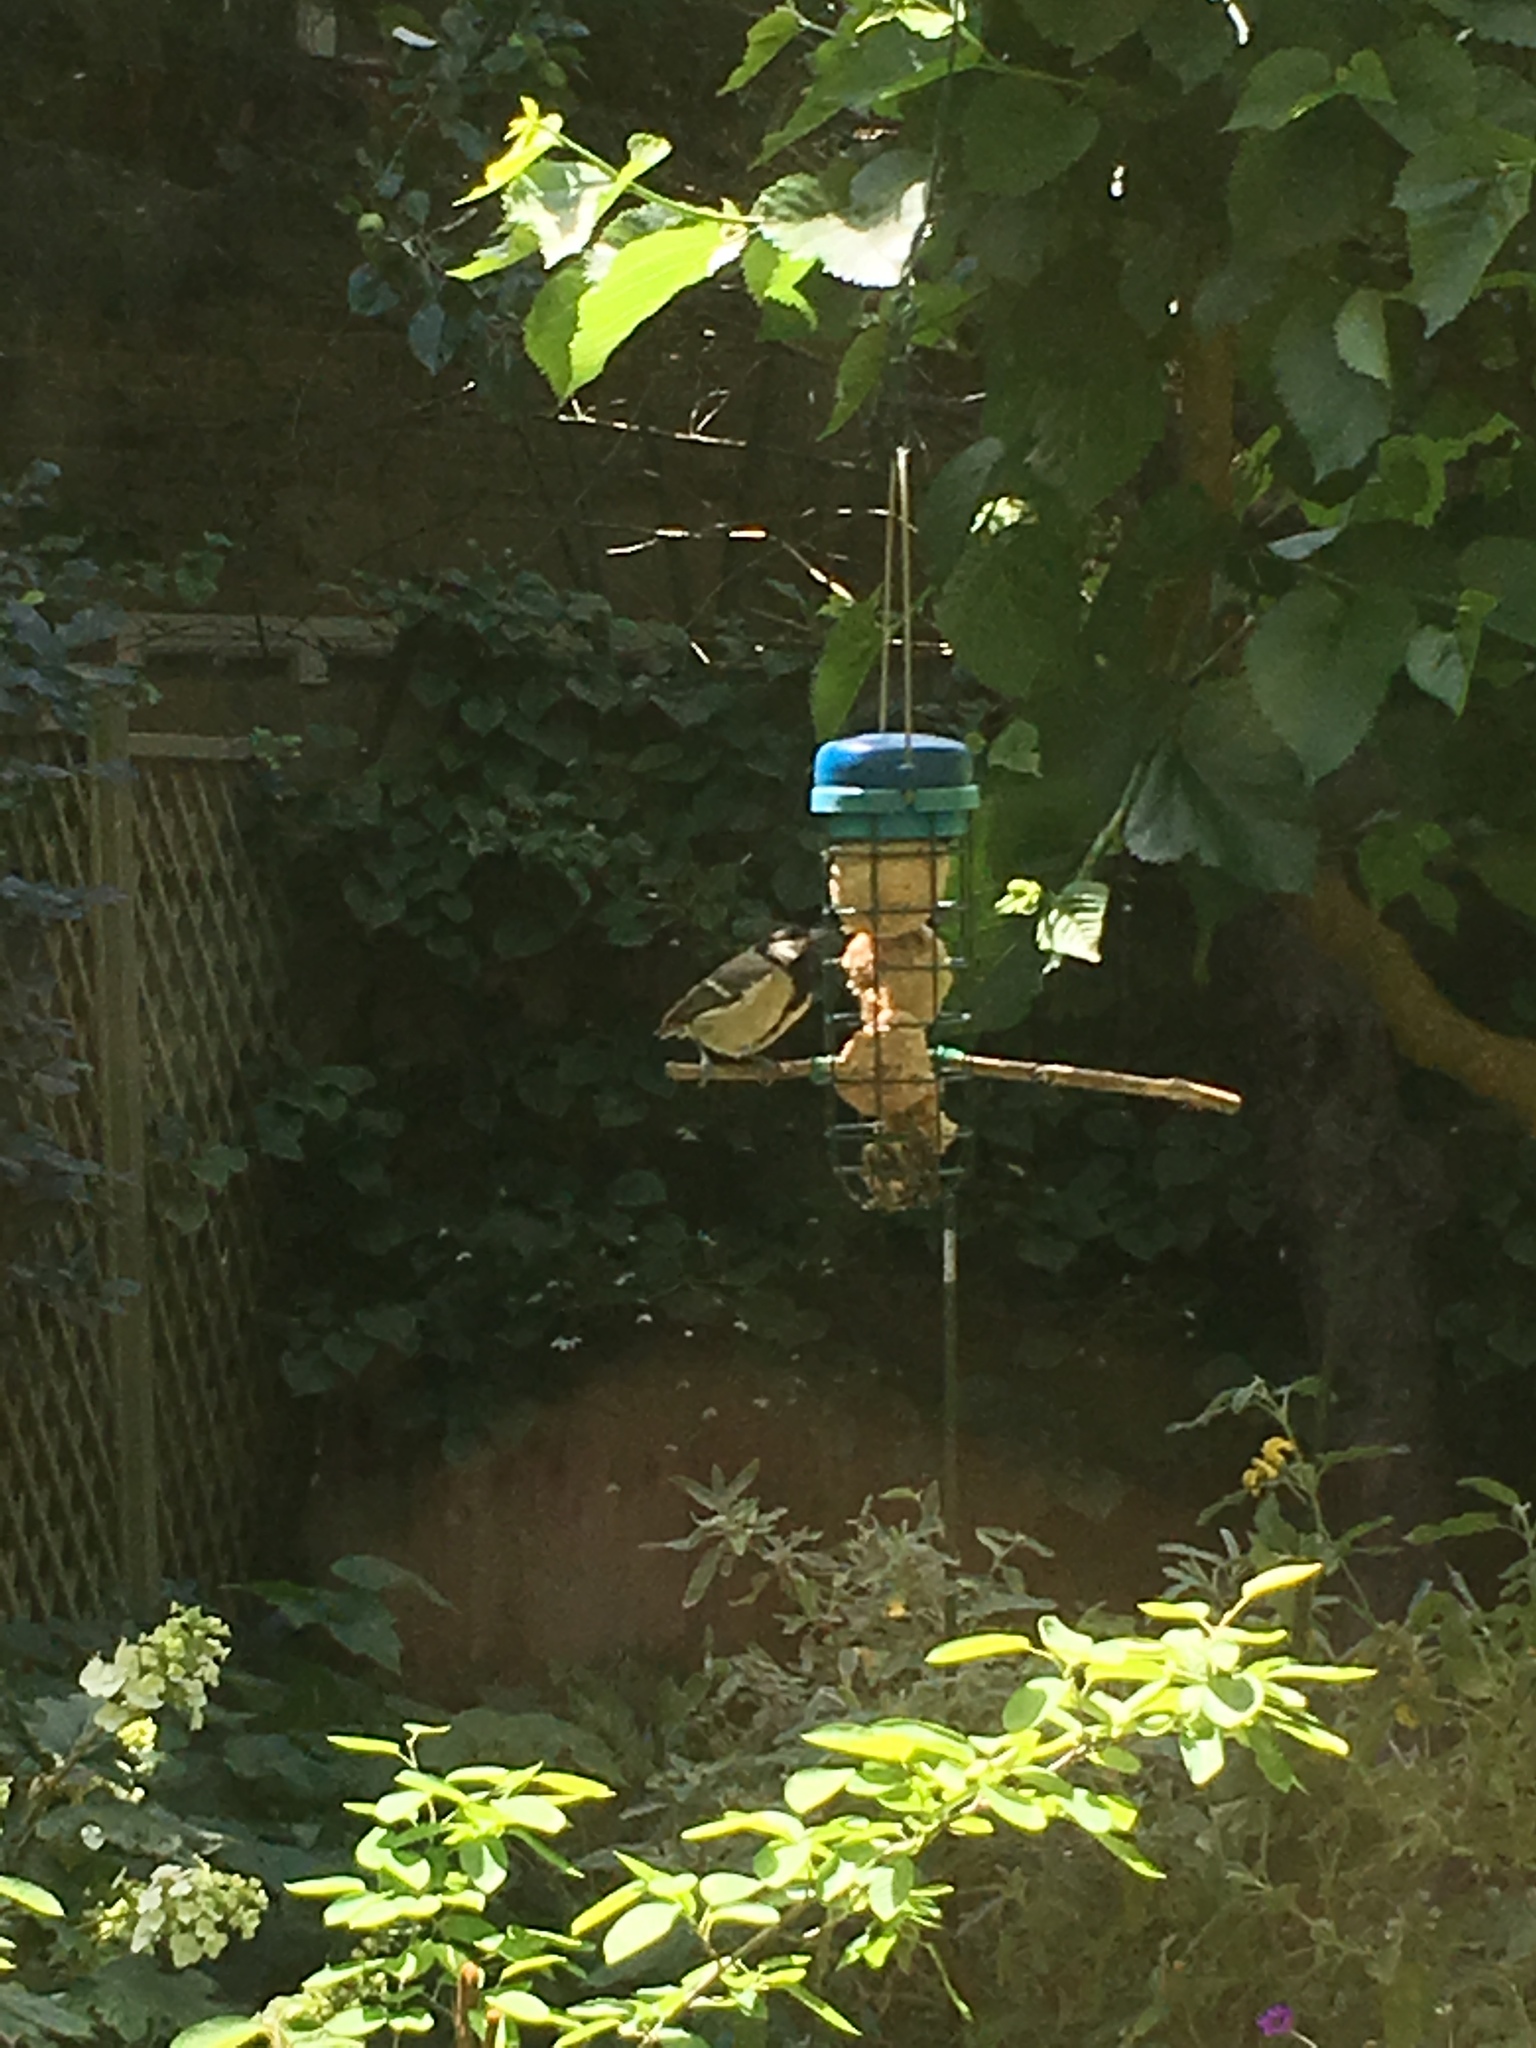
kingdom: Animalia
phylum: Chordata
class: Aves
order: Passeriformes
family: Paridae
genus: Parus
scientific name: Parus major
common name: Great tit
